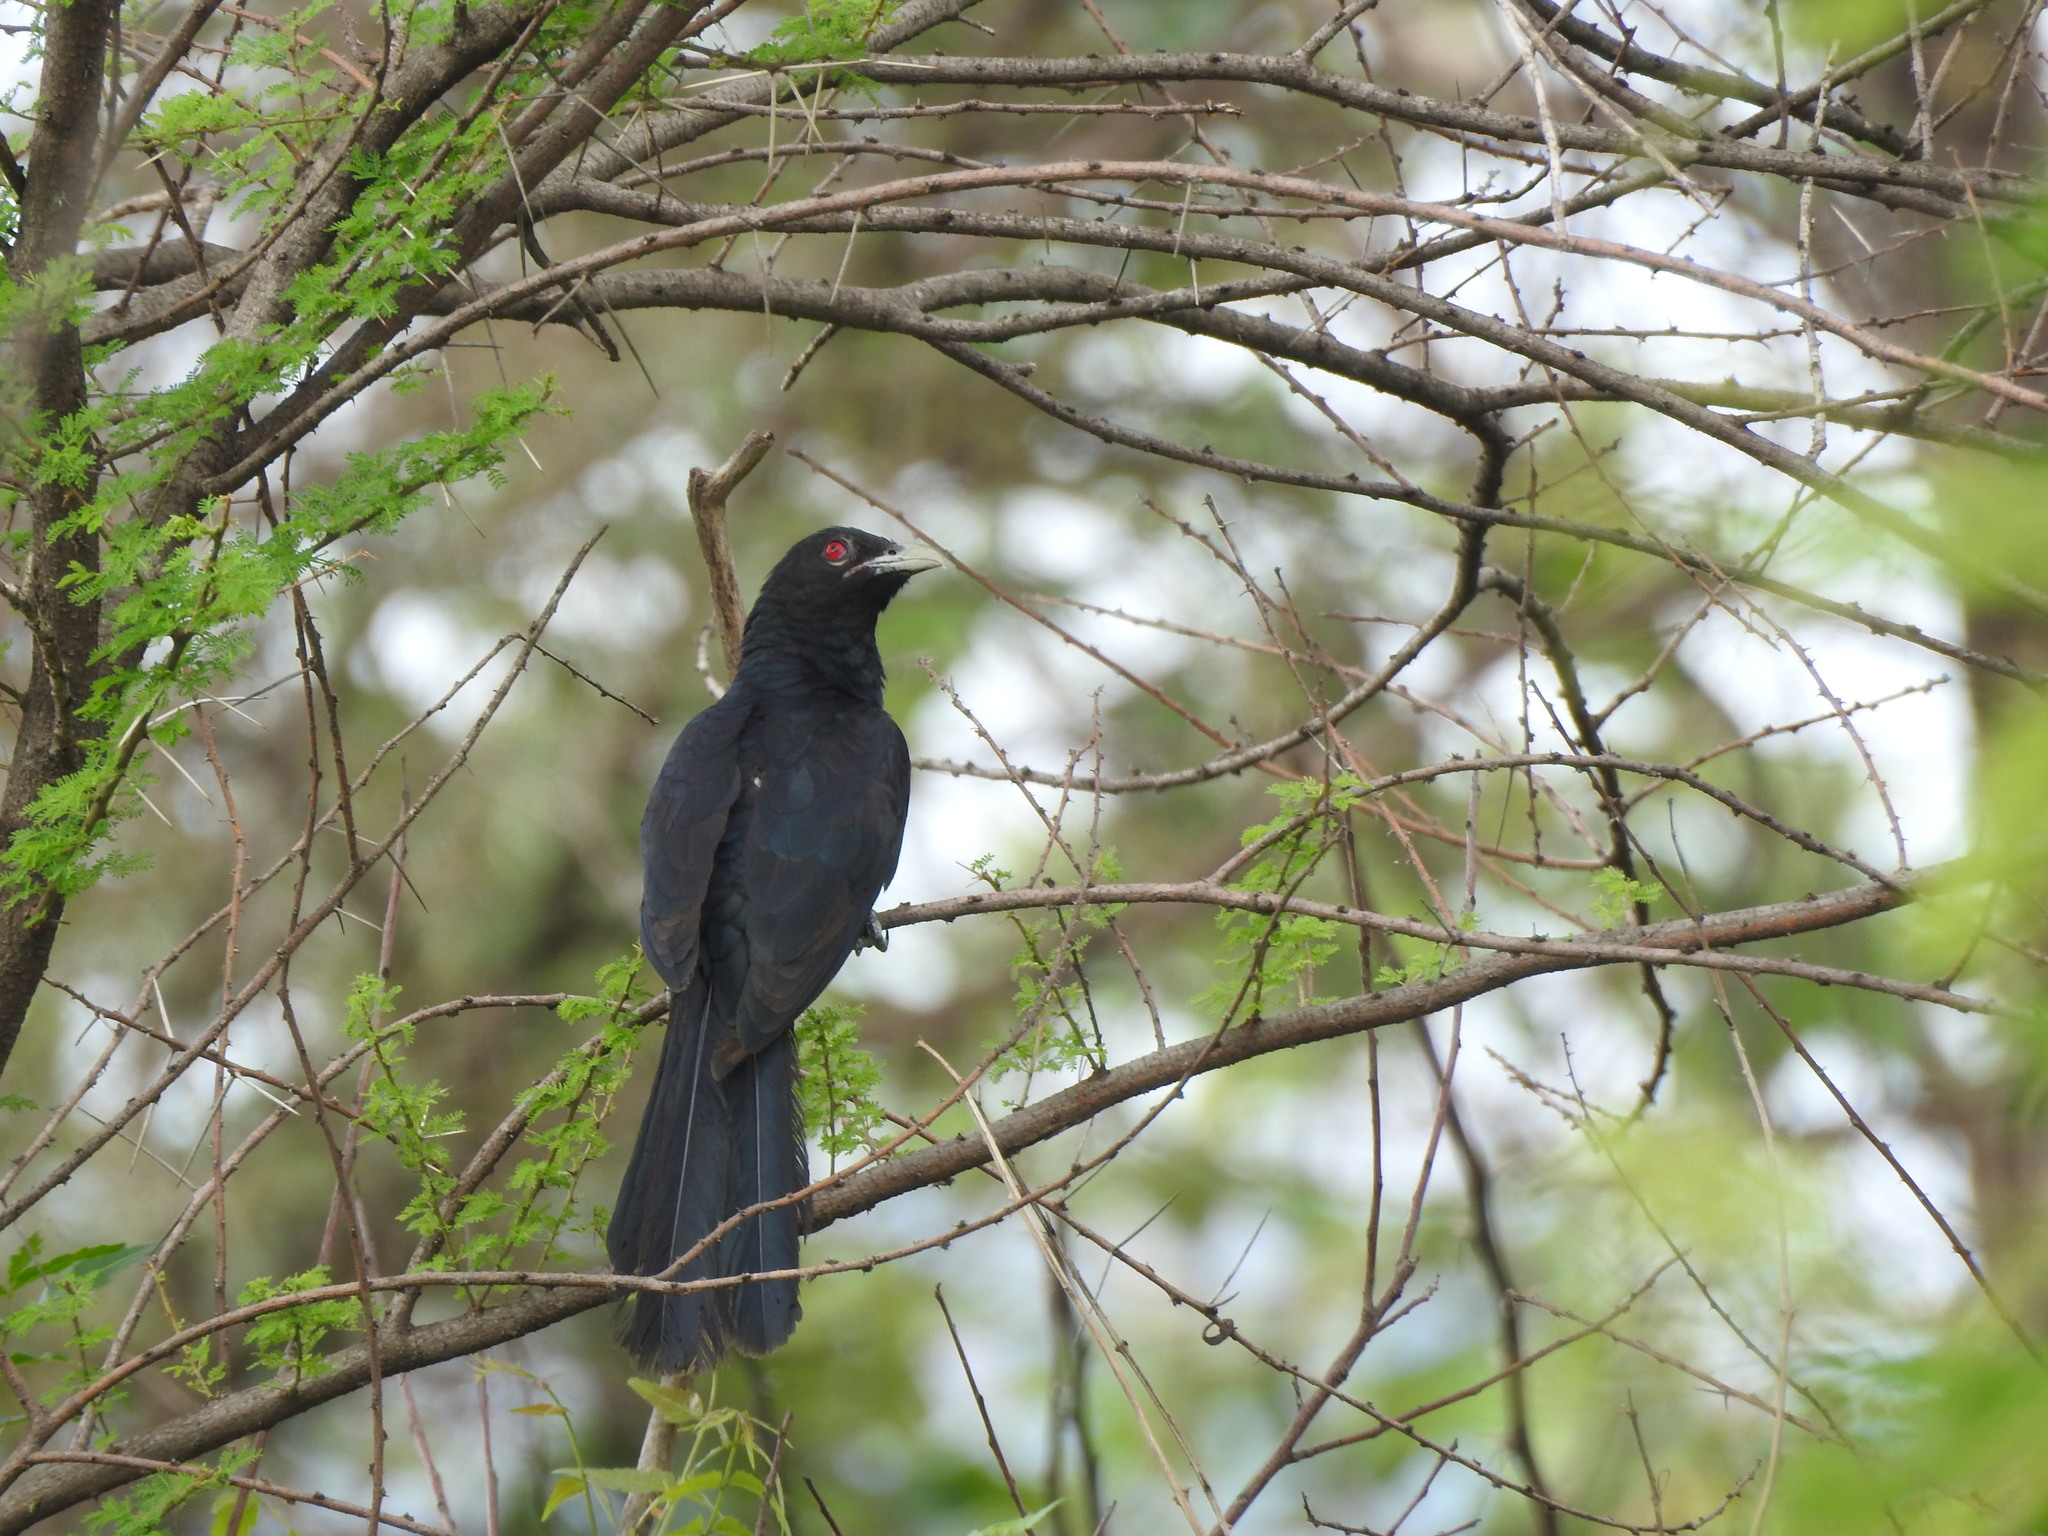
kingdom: Animalia
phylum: Chordata
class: Aves
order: Cuculiformes
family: Cuculidae
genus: Eudynamys
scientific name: Eudynamys scolopaceus
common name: Asian koel
